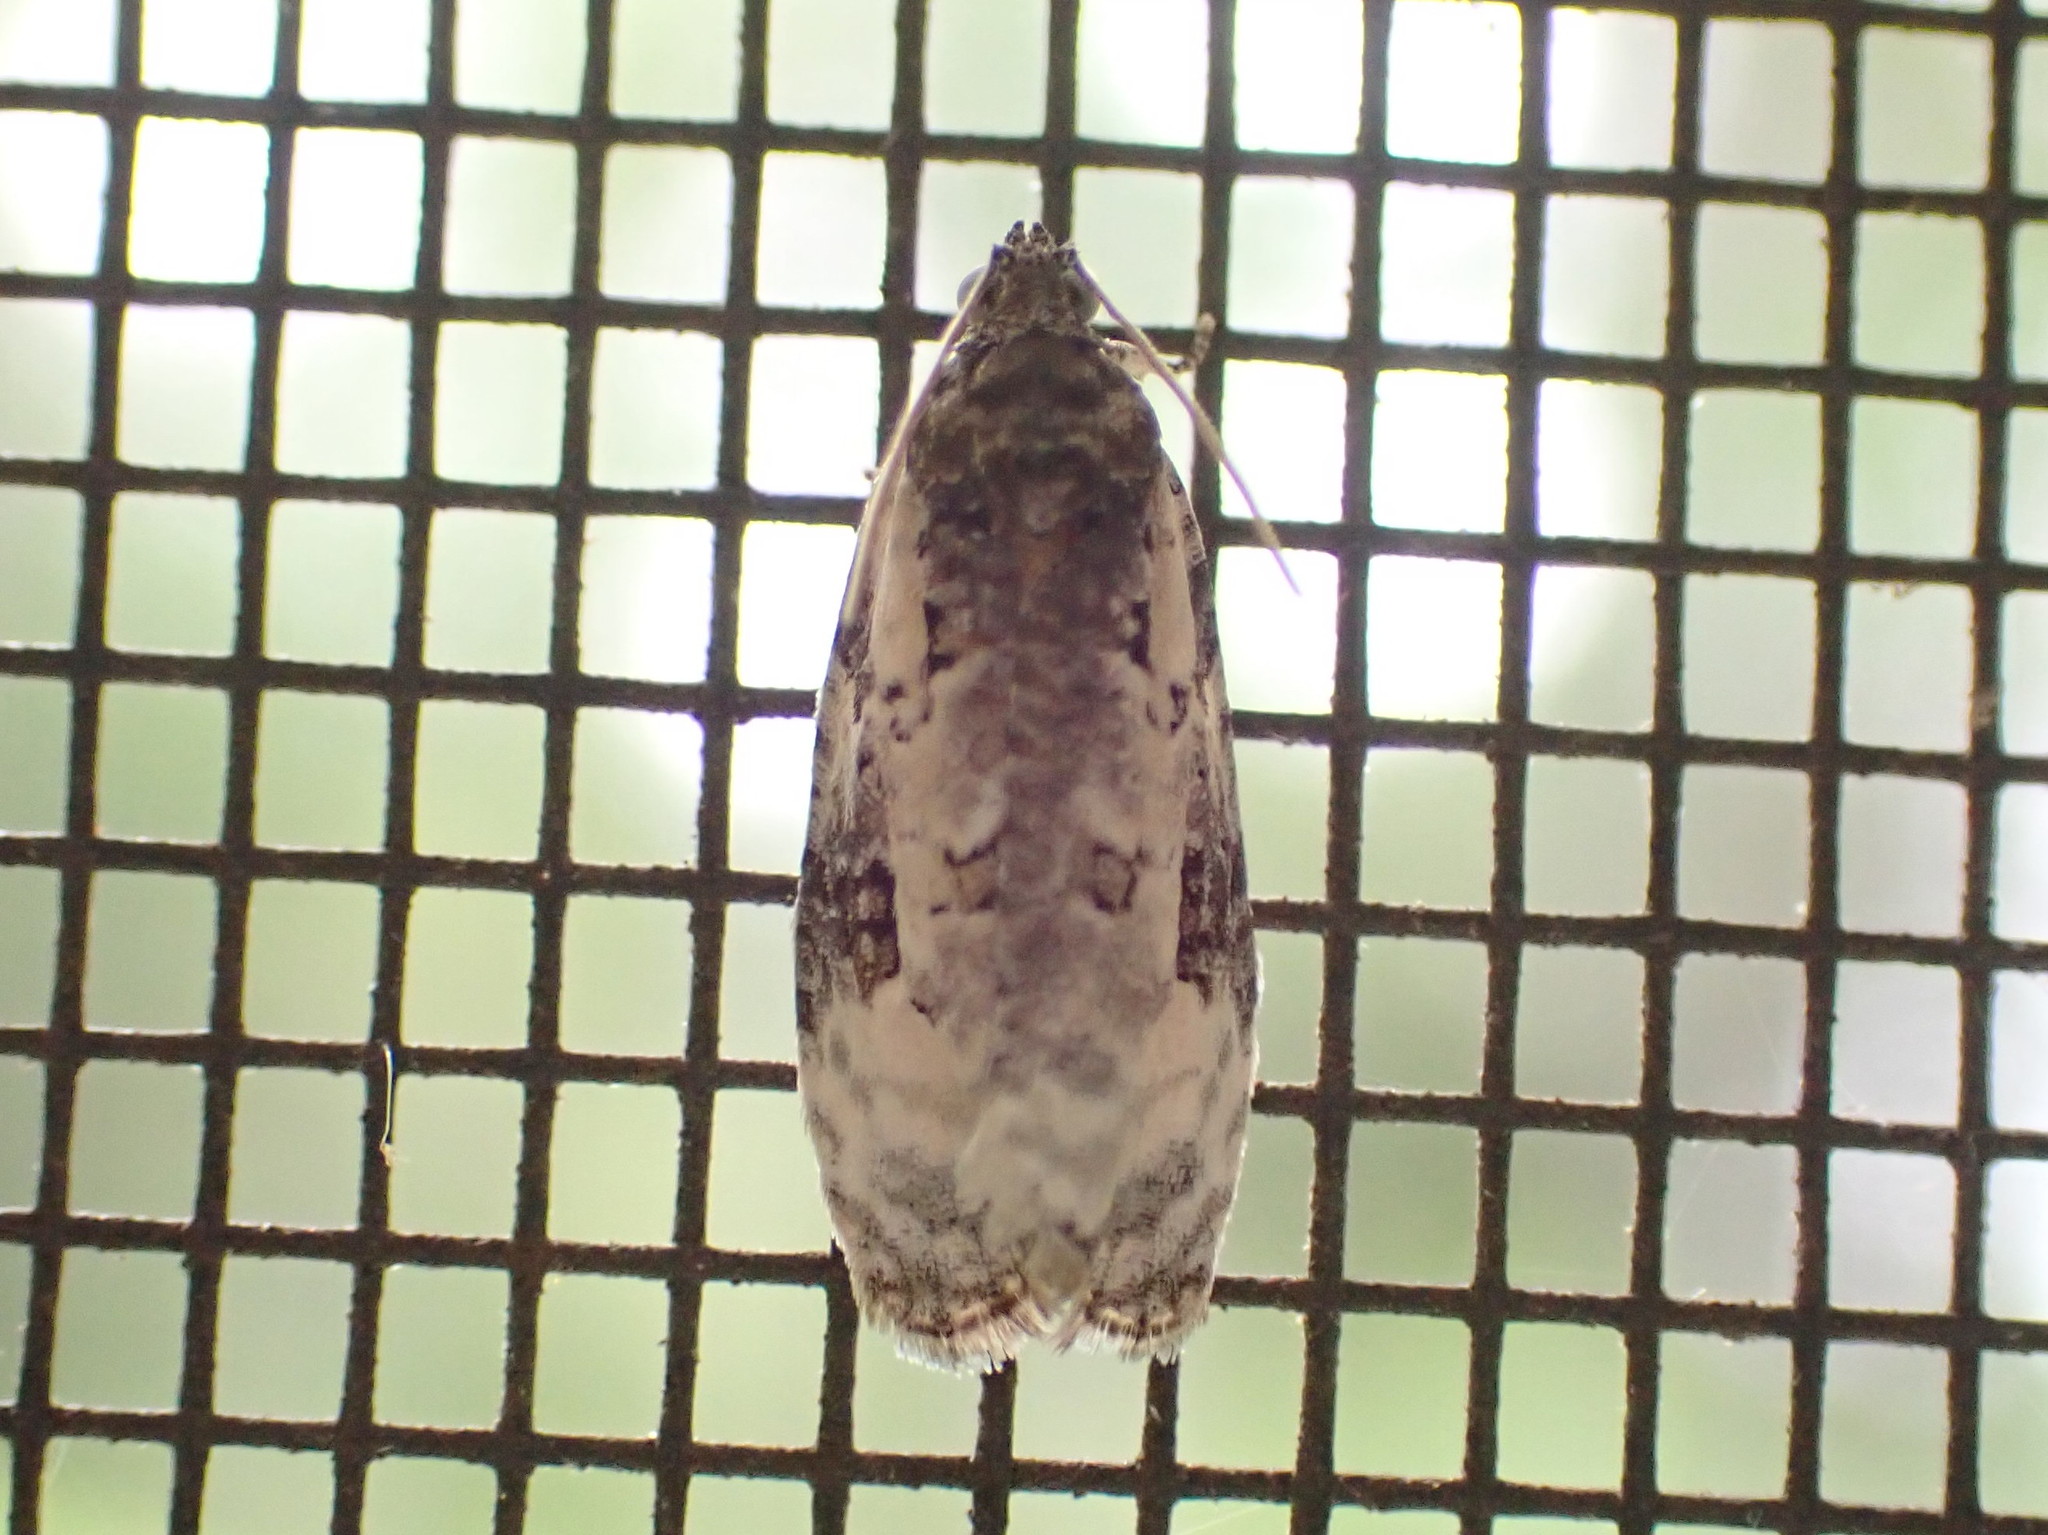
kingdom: Animalia
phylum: Arthropoda
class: Insecta
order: Lepidoptera
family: Tortricidae
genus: Apotomis
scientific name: Apotomis albeolana
